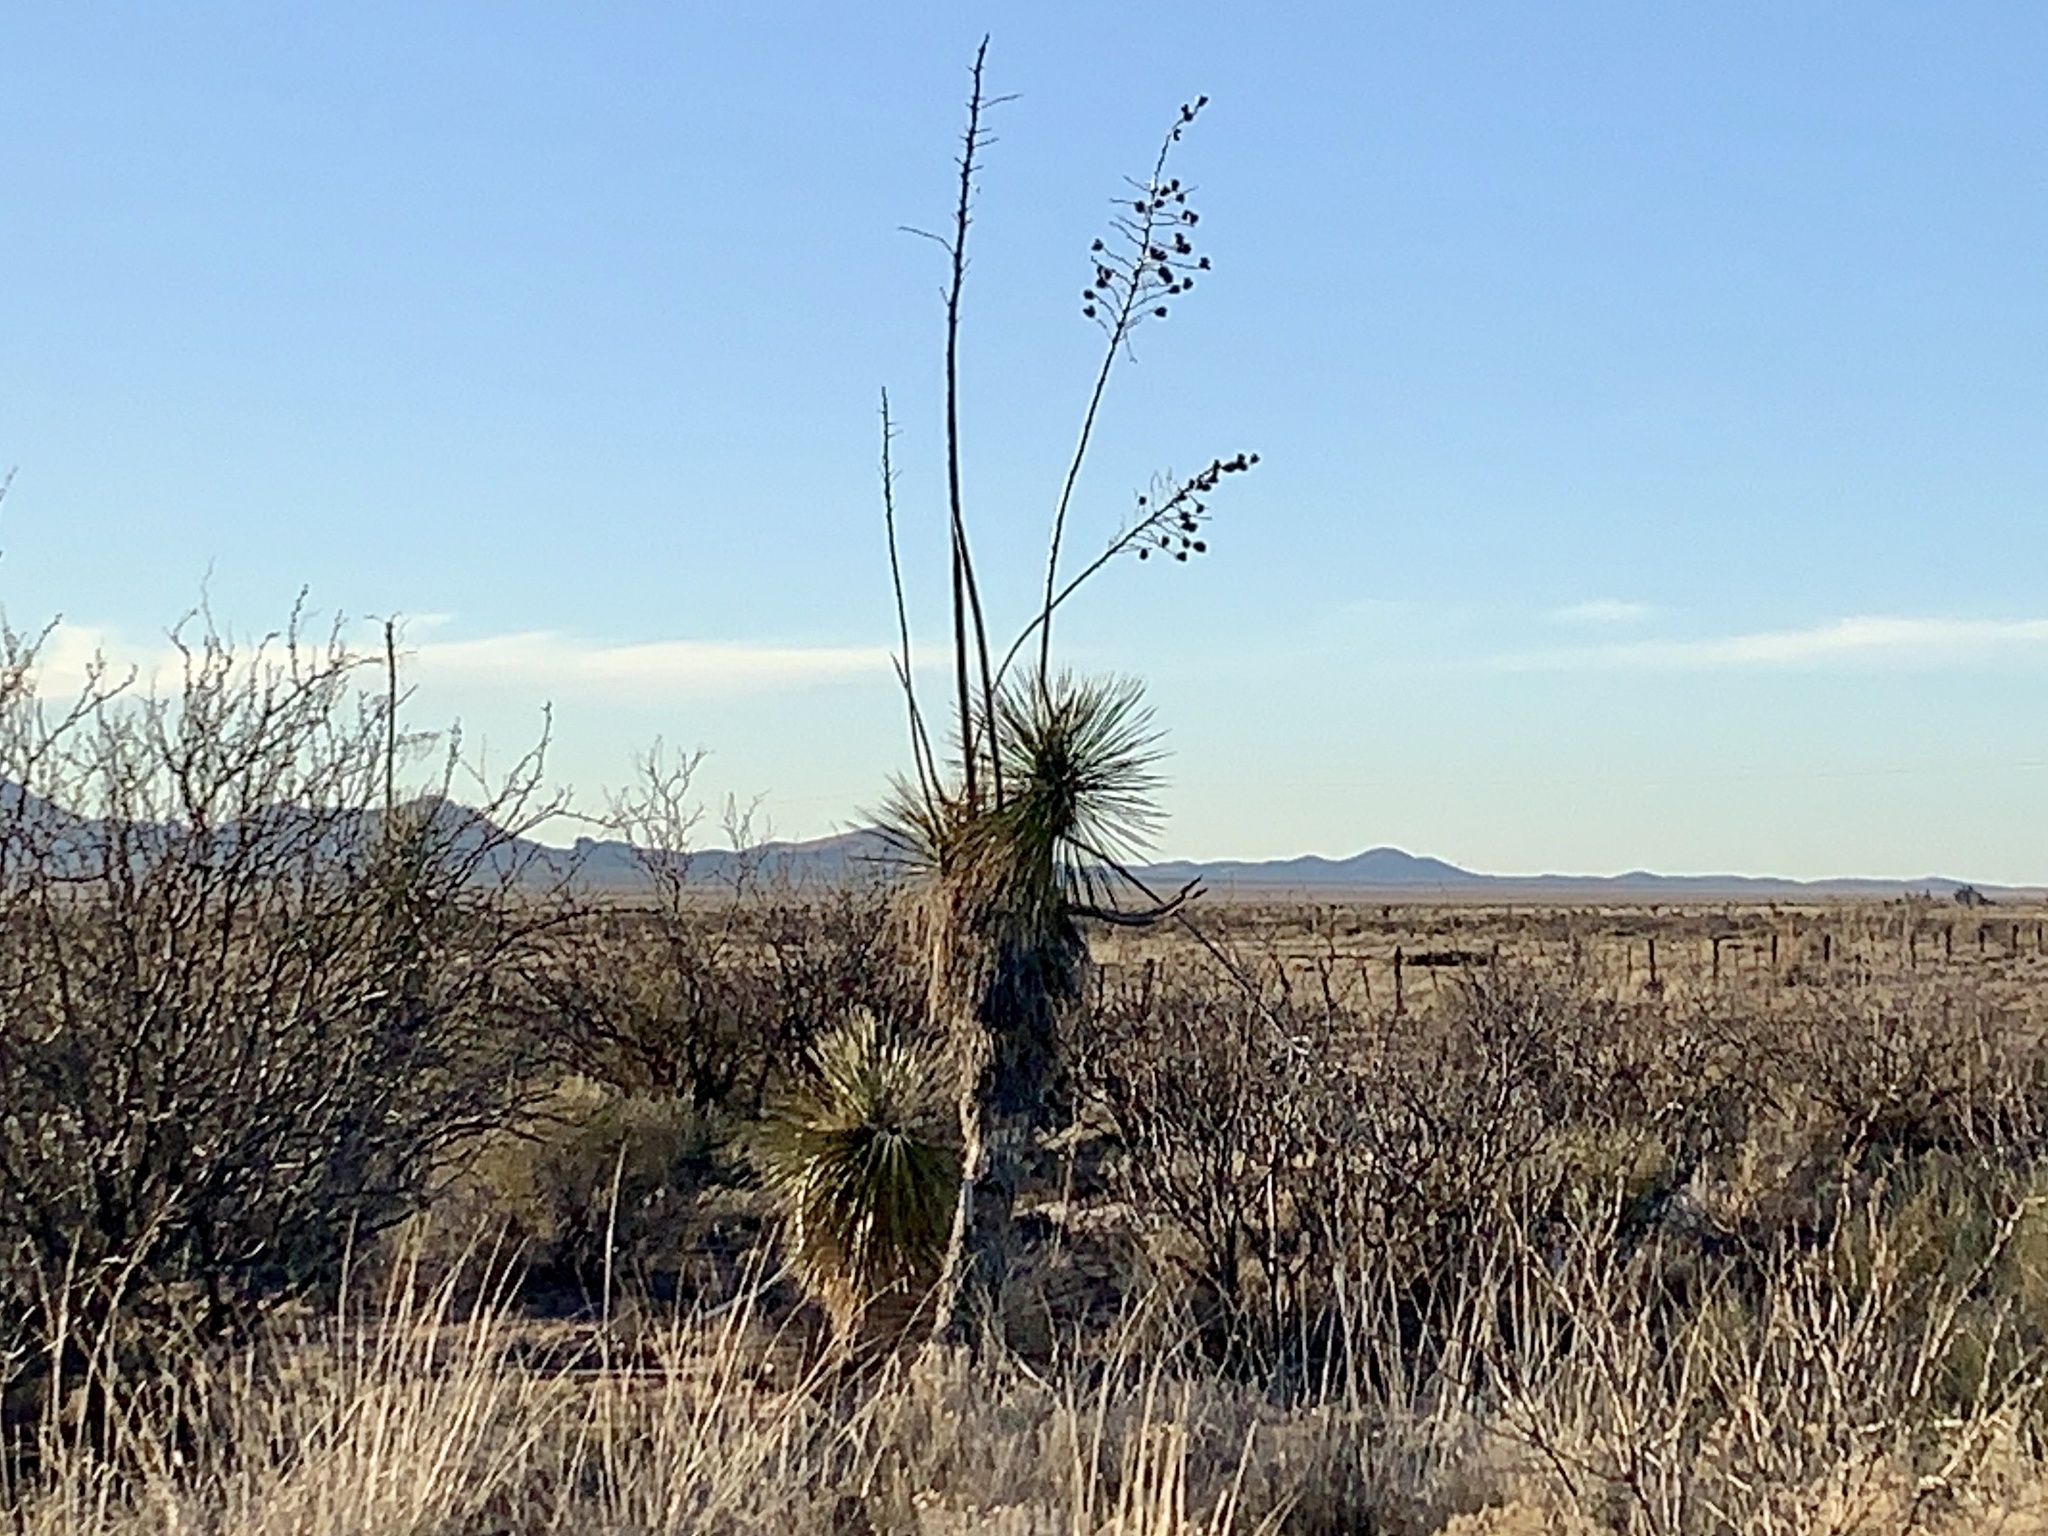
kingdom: Plantae
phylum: Tracheophyta
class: Liliopsida
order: Asparagales
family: Asparagaceae
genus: Yucca
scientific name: Yucca elata
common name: Palmella
